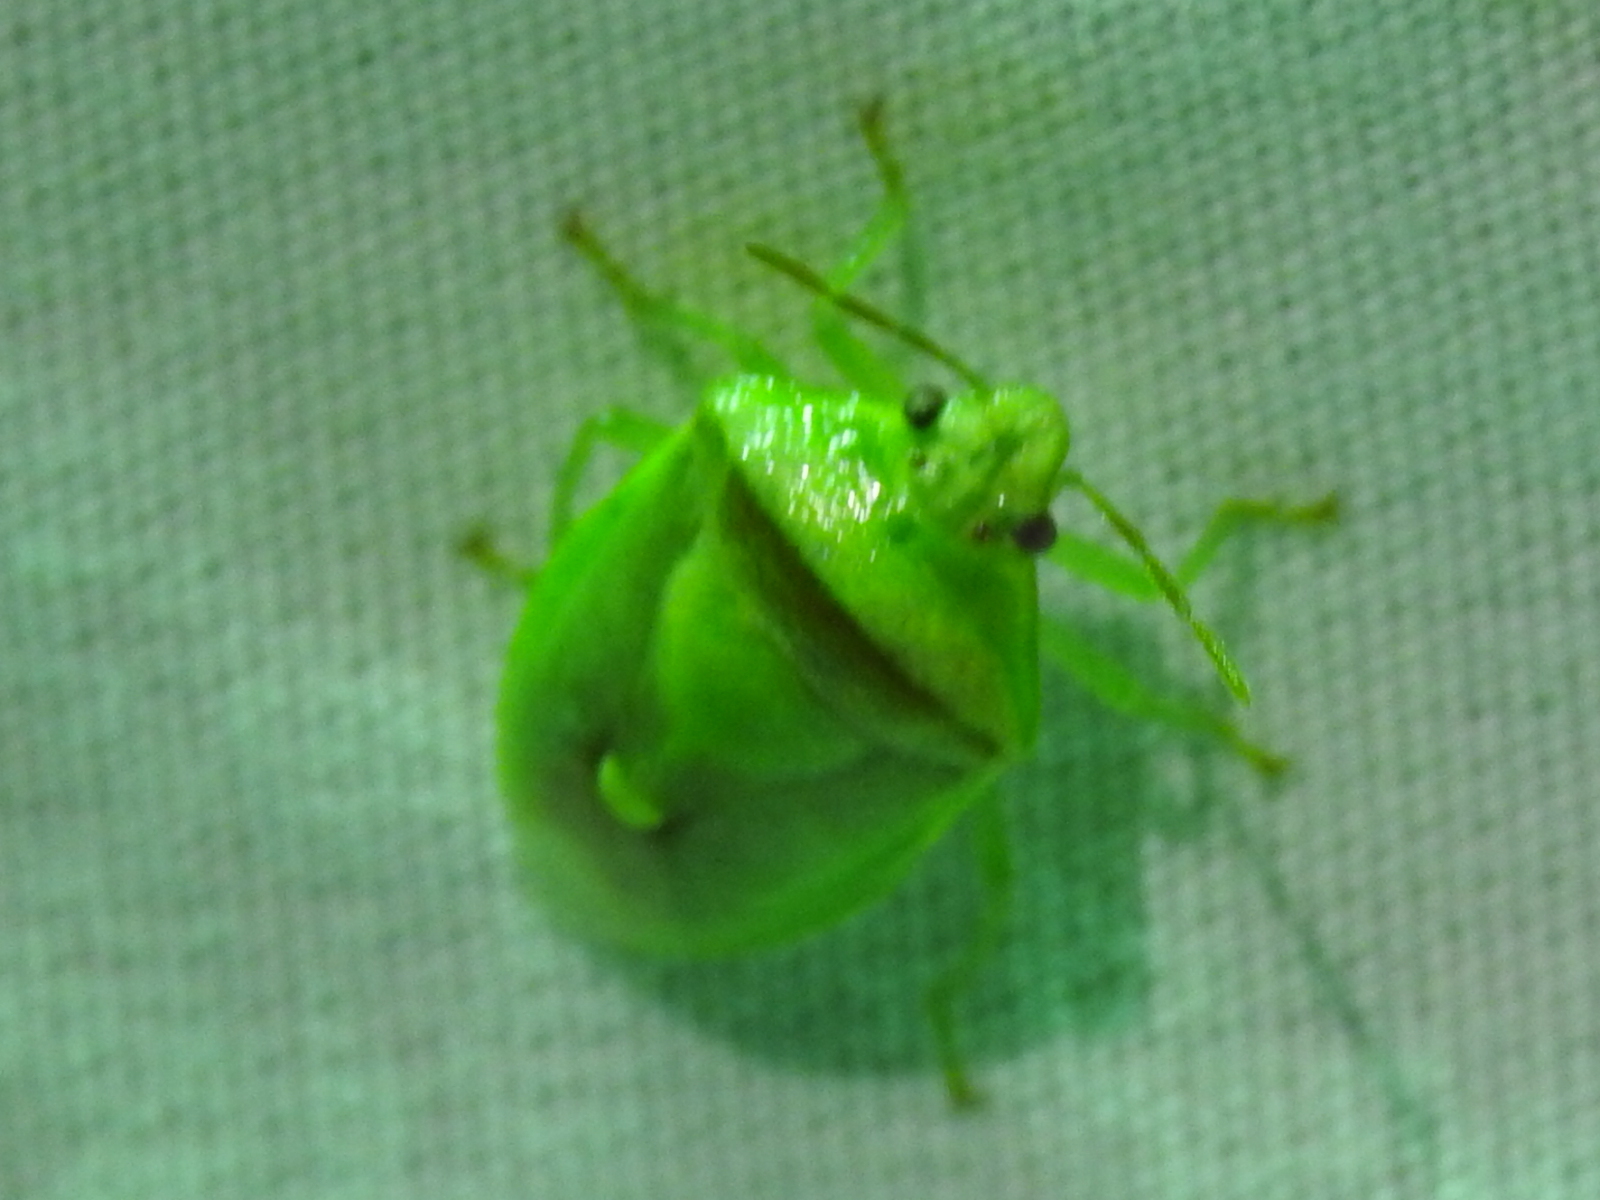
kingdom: Animalia
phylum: Arthropoda
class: Insecta
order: Hemiptera
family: Pentatomidae
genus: Banasa
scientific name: Banasa dimidiata
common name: Green burgundy stink bug
